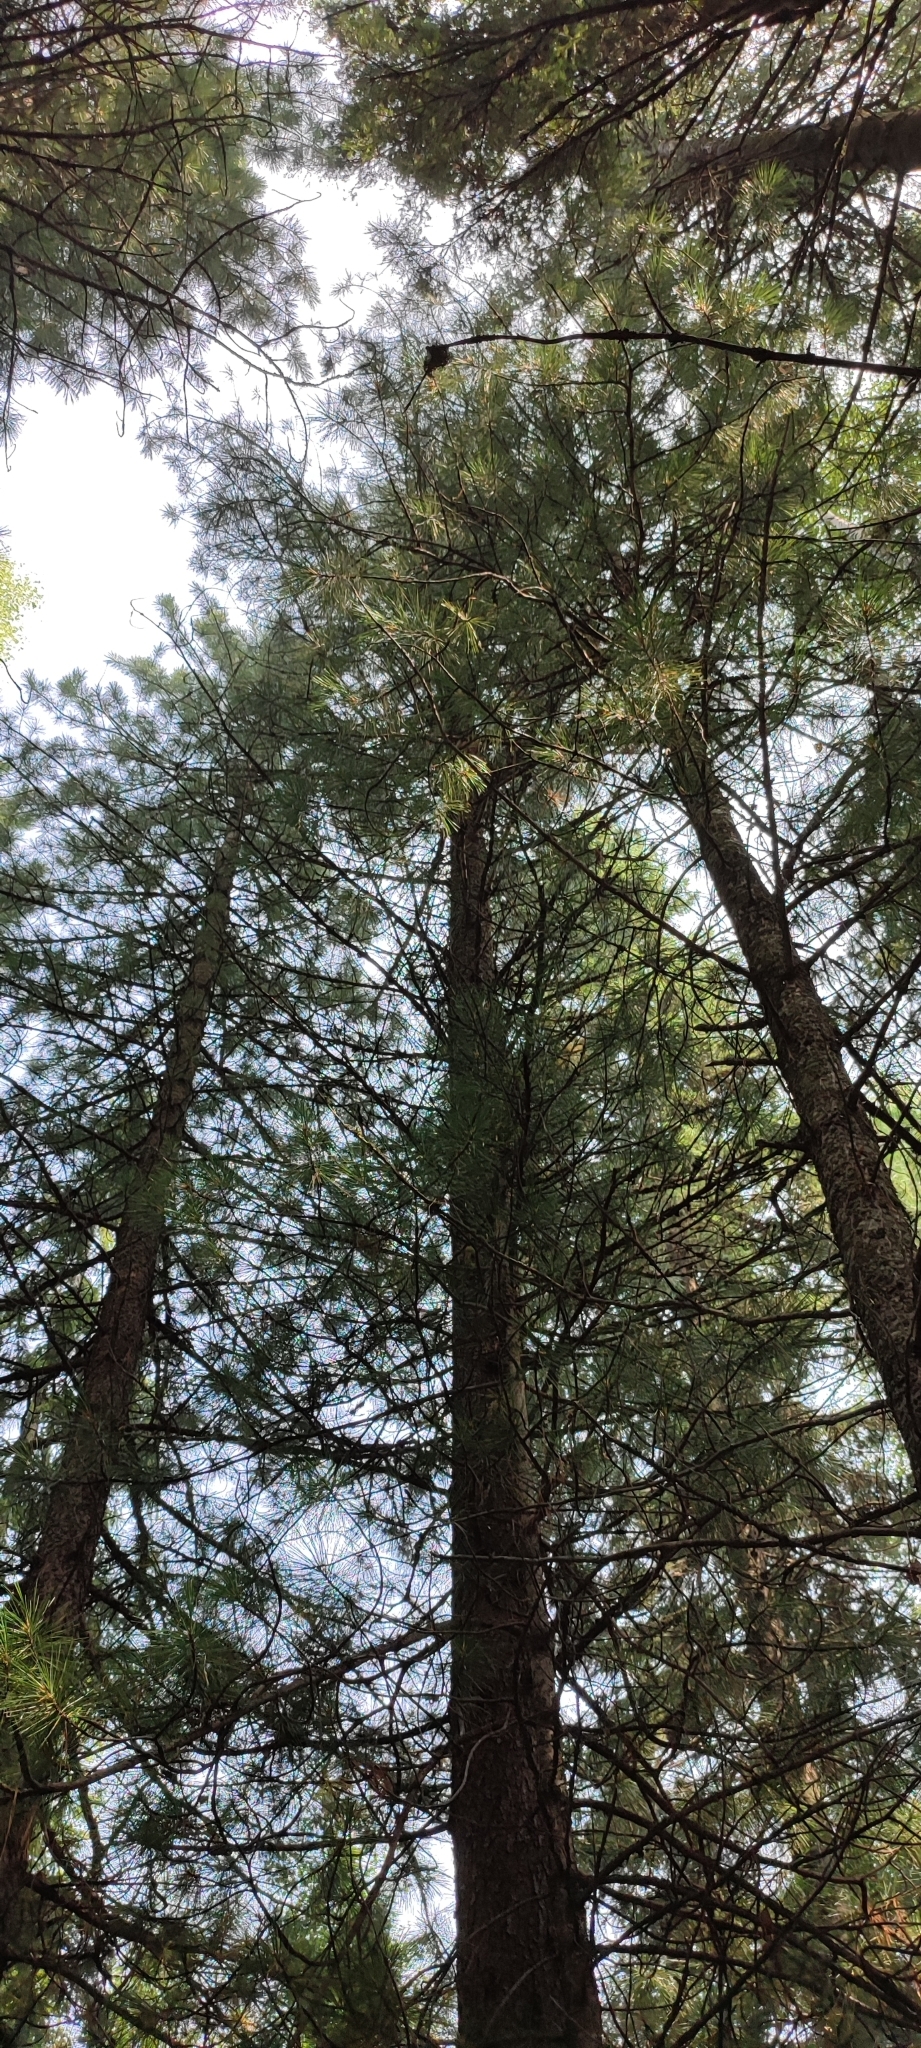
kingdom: Plantae
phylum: Tracheophyta
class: Pinopsida
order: Pinales
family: Pinaceae
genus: Pinus
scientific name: Pinus sibirica
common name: Siberian pine
